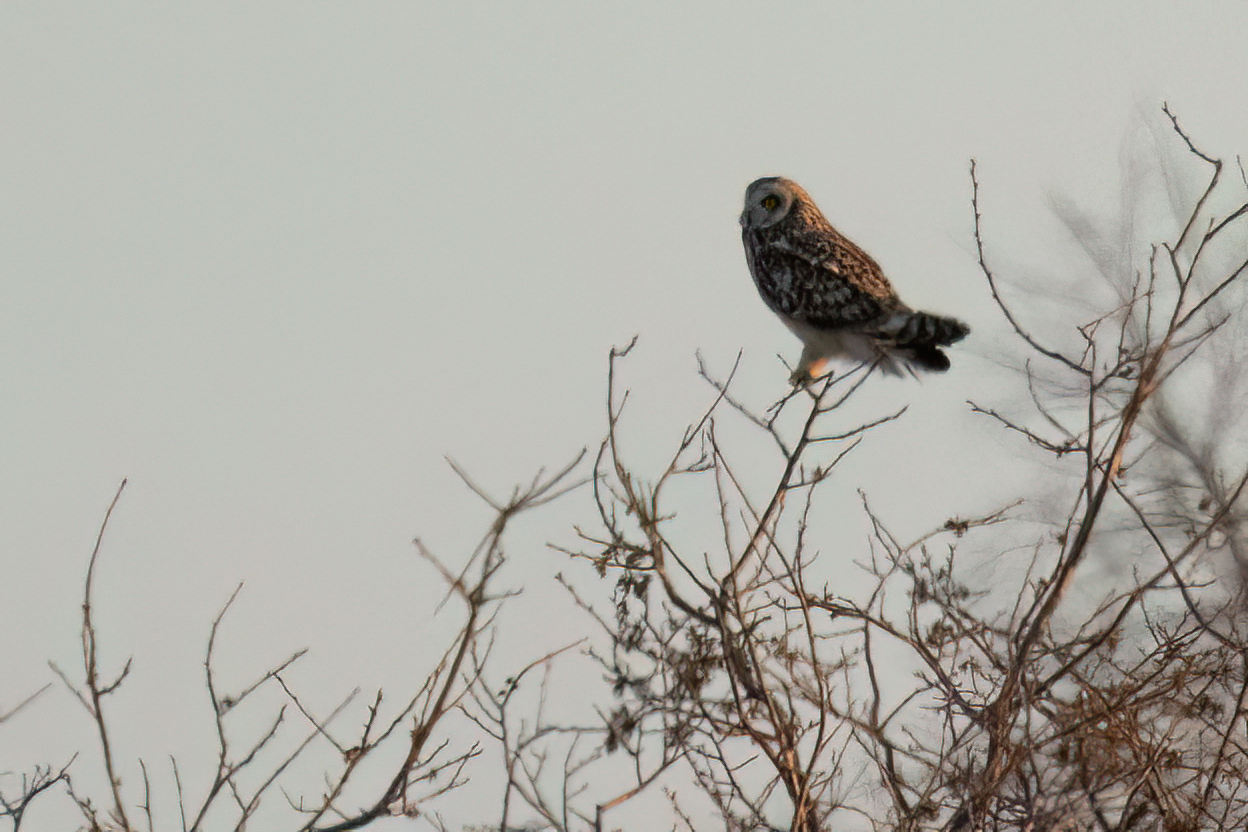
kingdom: Animalia
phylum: Chordata
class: Aves
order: Strigiformes
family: Strigidae
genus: Asio
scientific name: Asio flammeus
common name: Short-eared owl
